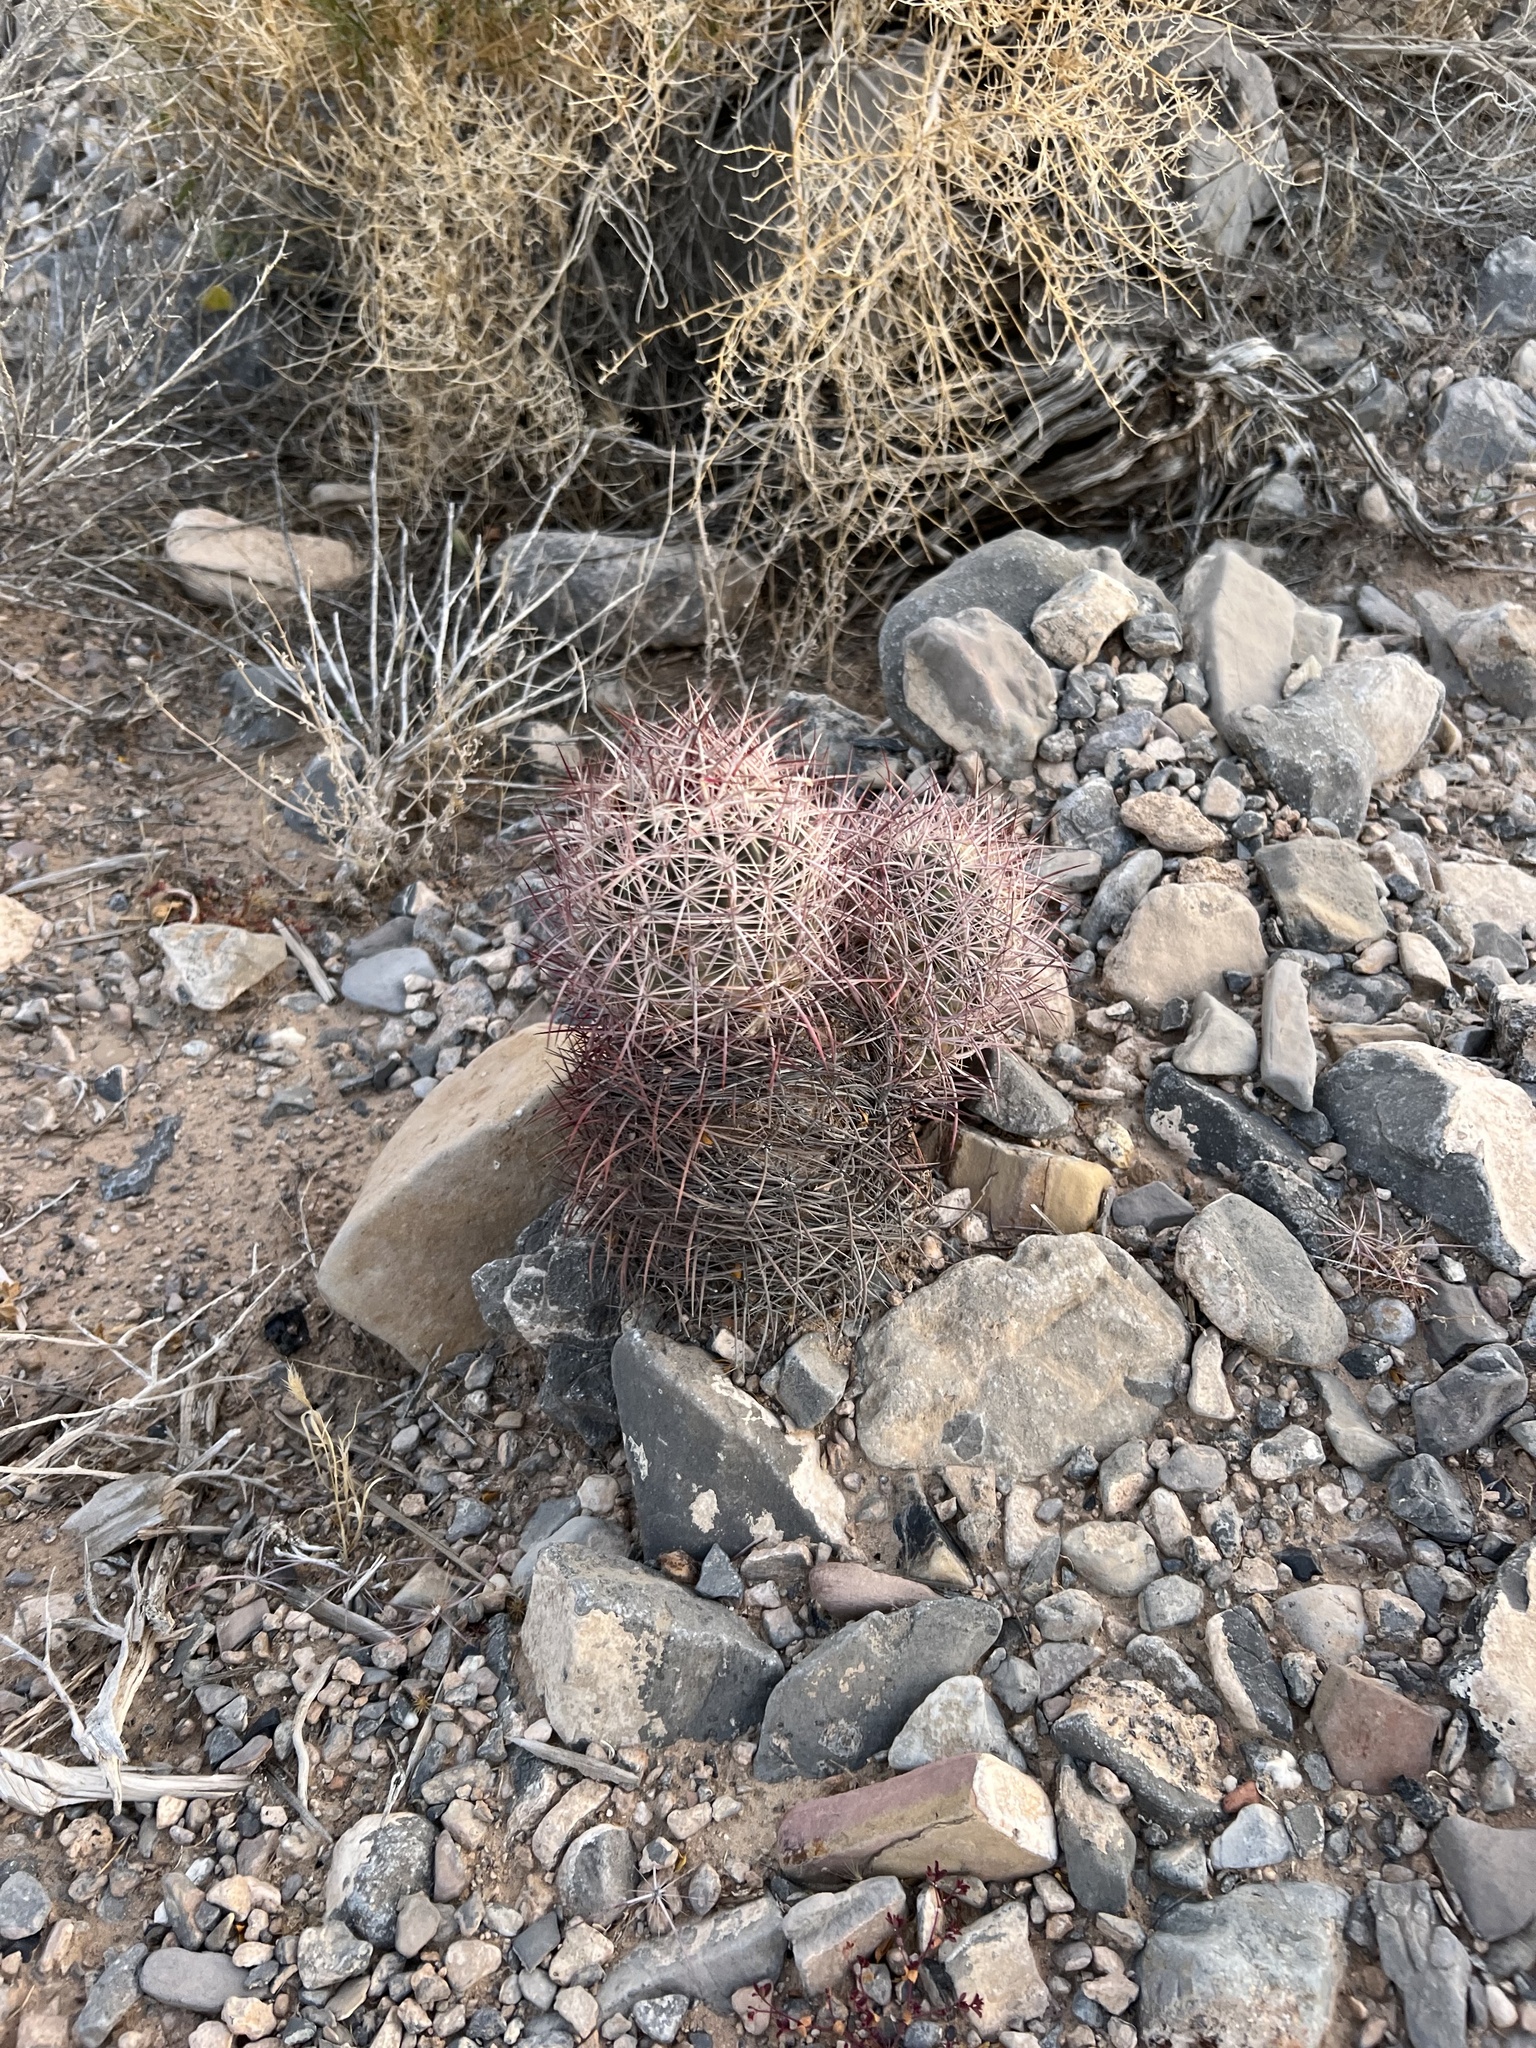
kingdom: Plantae
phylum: Tracheophyta
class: Magnoliopsida
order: Caryophyllales
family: Cactaceae
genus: Sclerocactus
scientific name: Sclerocactus johnsonii
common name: Eight-spine fishhook cactus
